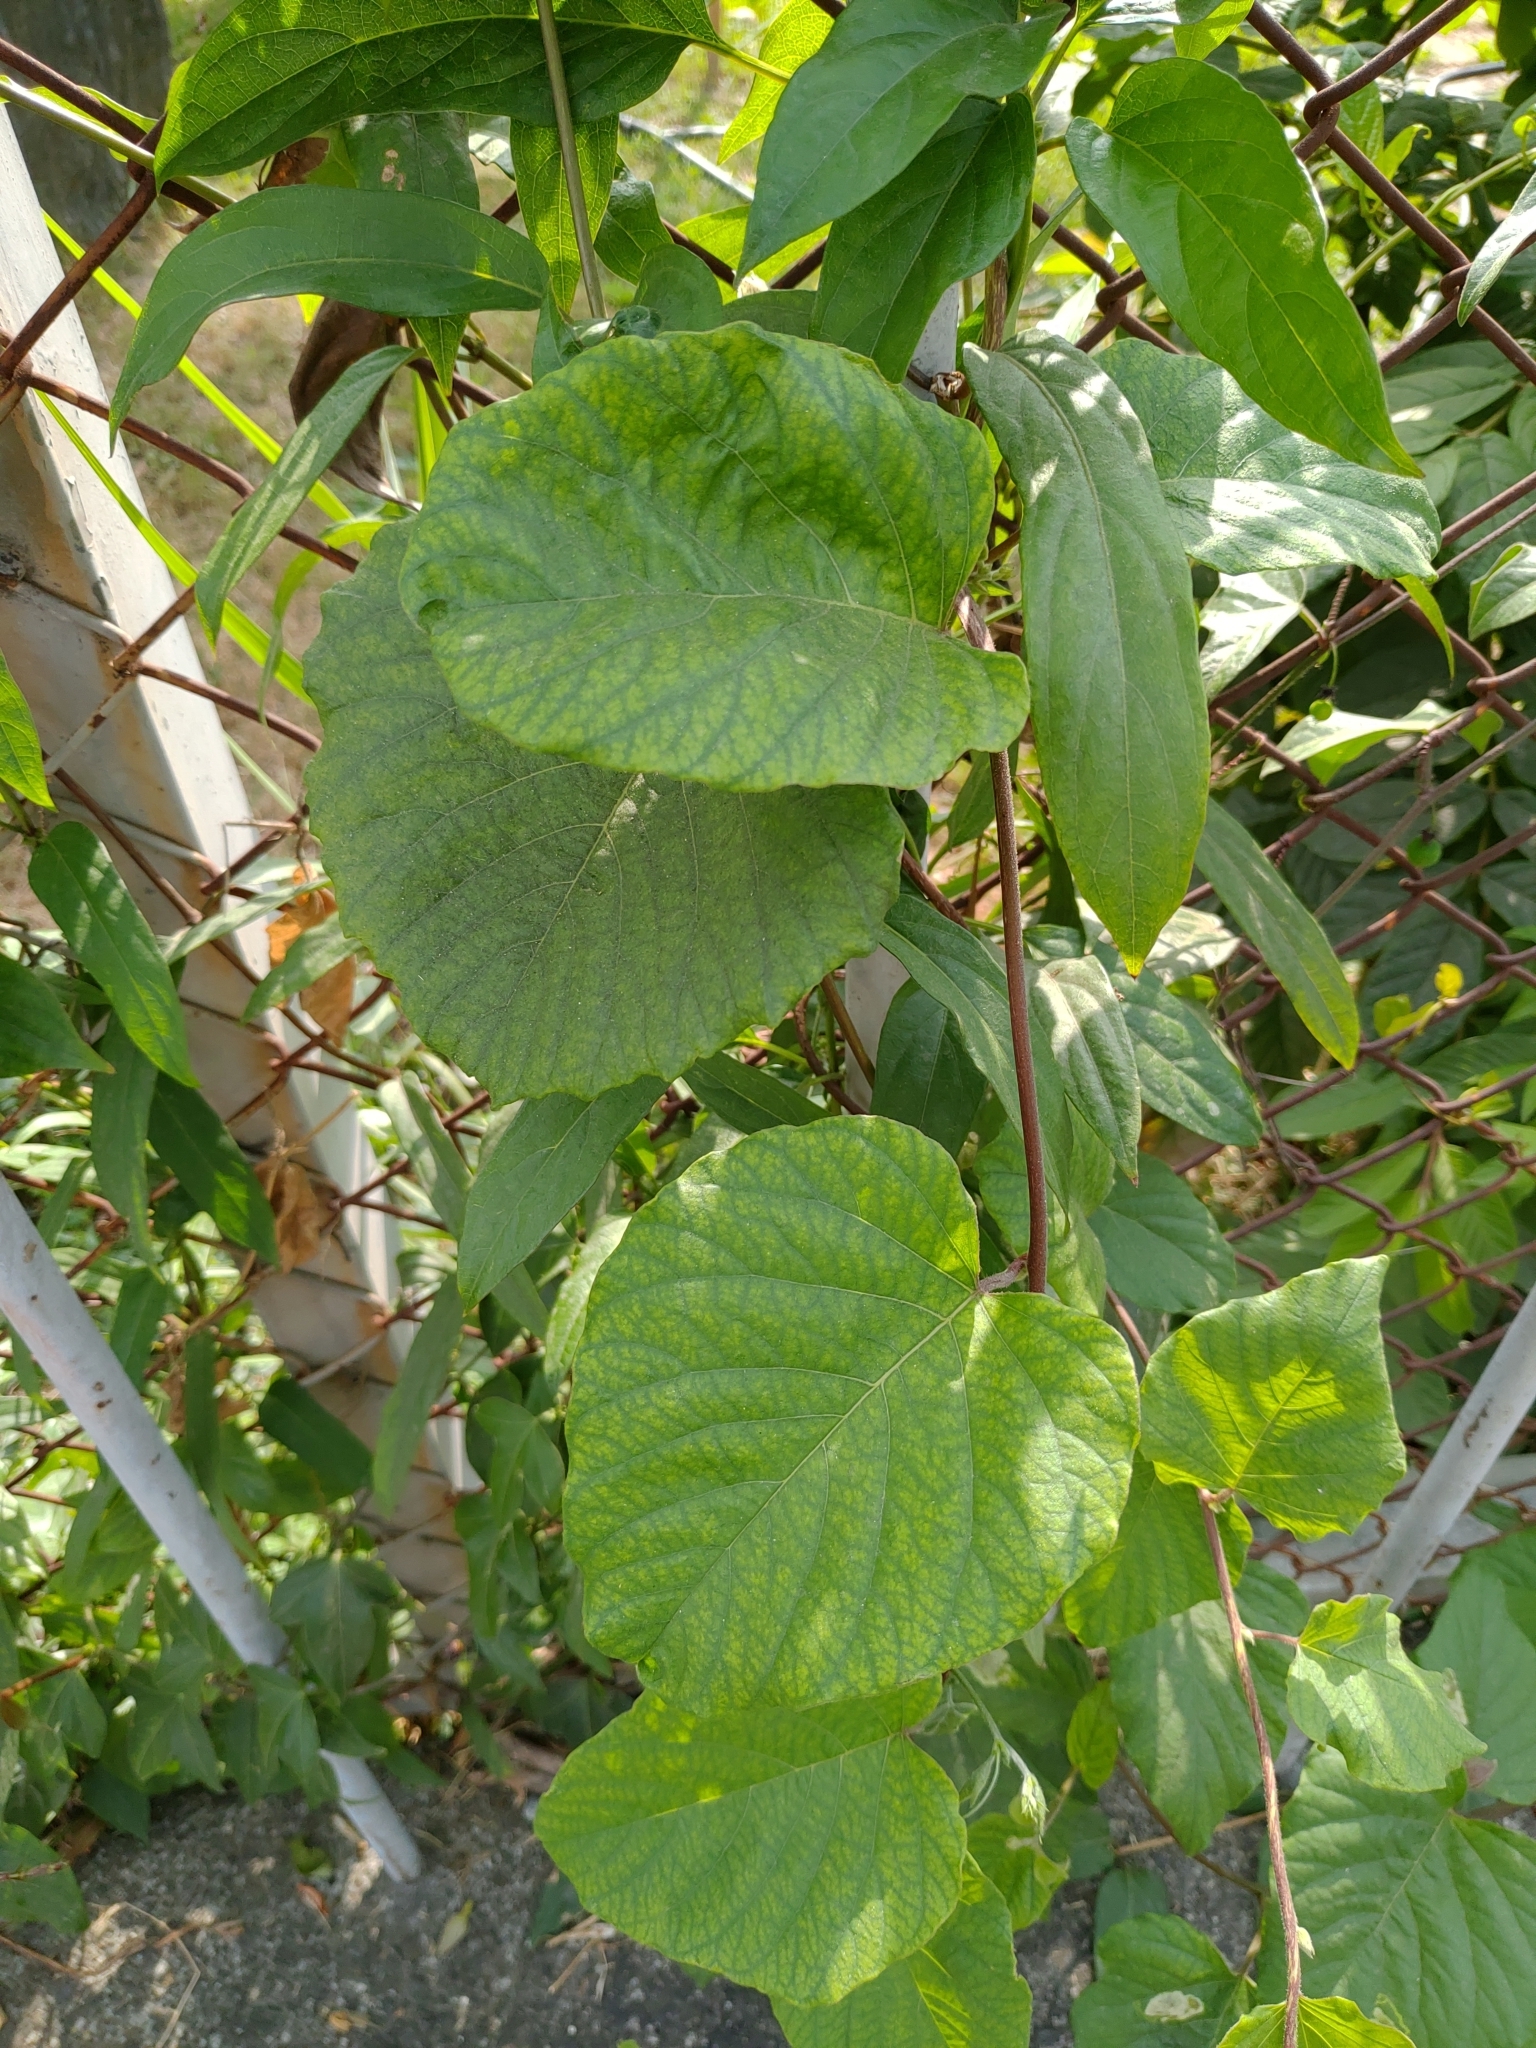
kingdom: Plantae
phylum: Tracheophyta
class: Magnoliopsida
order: Solanales
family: Convolvulaceae
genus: Operculina
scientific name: Operculina turpethum
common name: Transparent wood-rose
